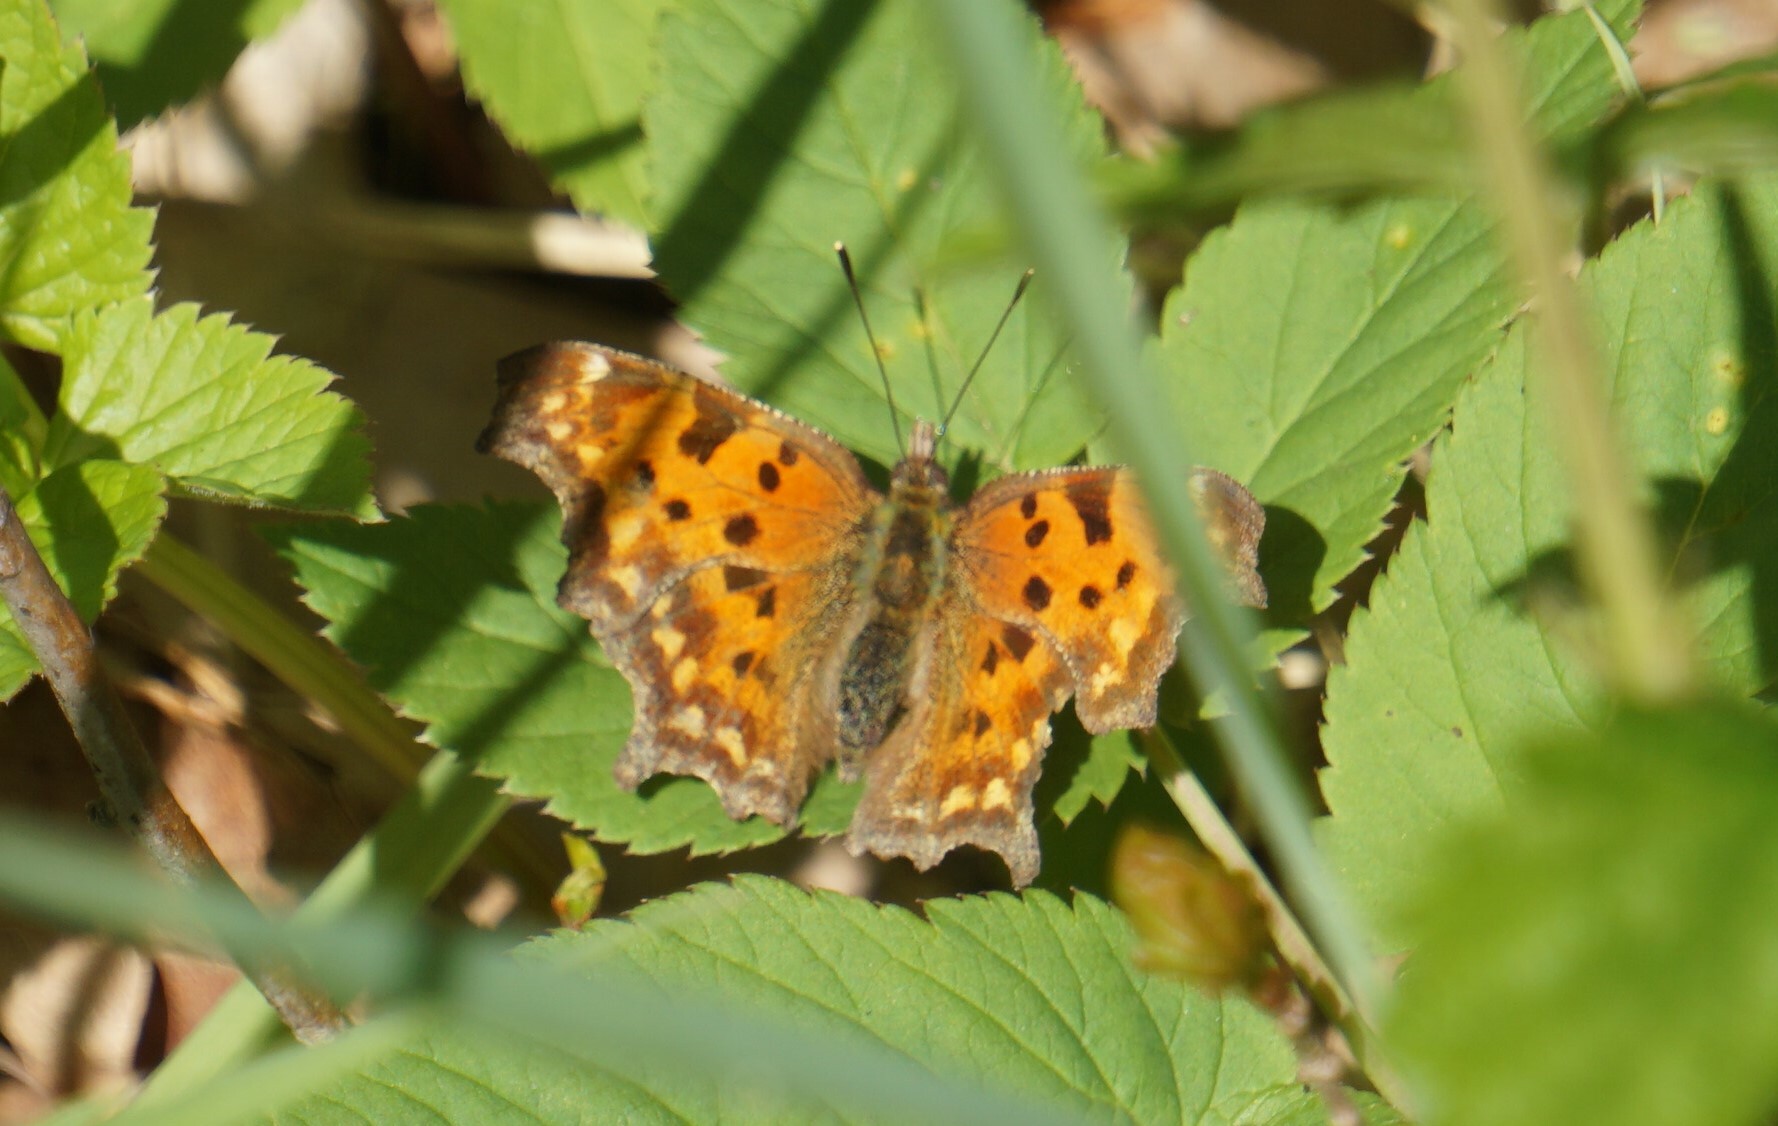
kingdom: Animalia
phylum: Arthropoda
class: Insecta
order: Lepidoptera
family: Nymphalidae
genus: Polygonia
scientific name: Polygonia c-album
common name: Comma
